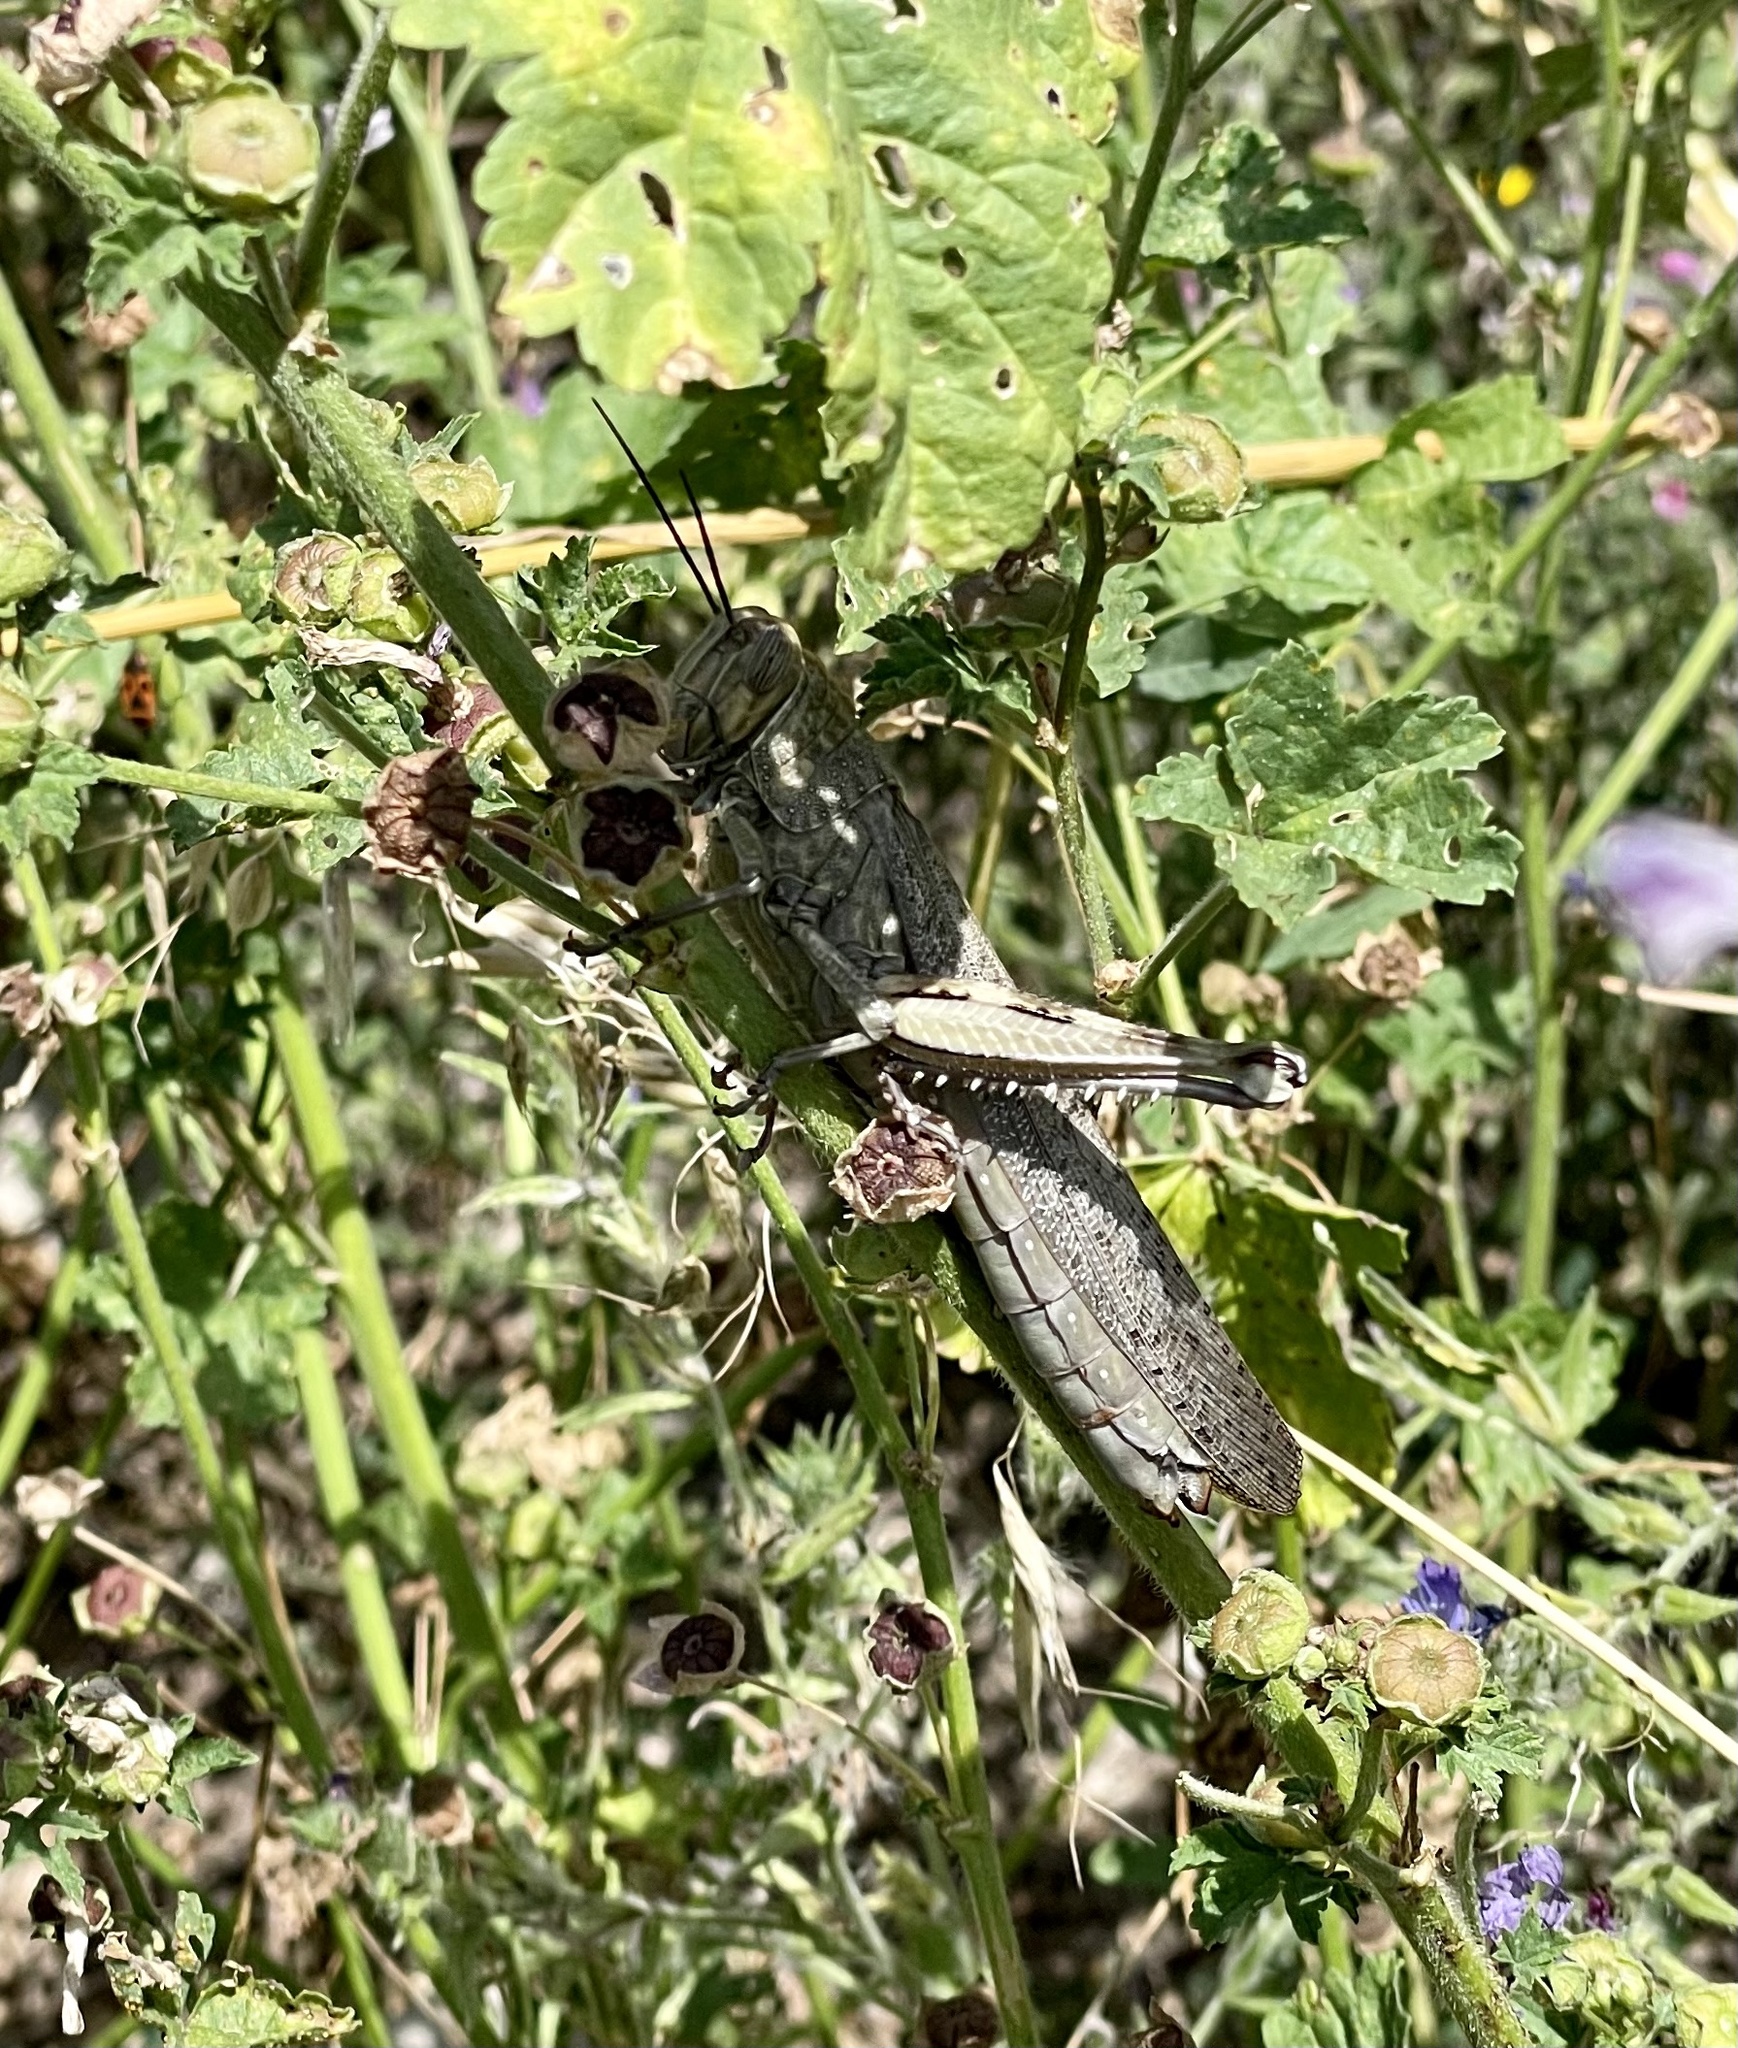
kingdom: Animalia
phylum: Arthropoda
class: Insecta
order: Orthoptera
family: Acrididae
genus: Anacridium
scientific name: Anacridium aegyptium
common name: Egyptian grasshopper
